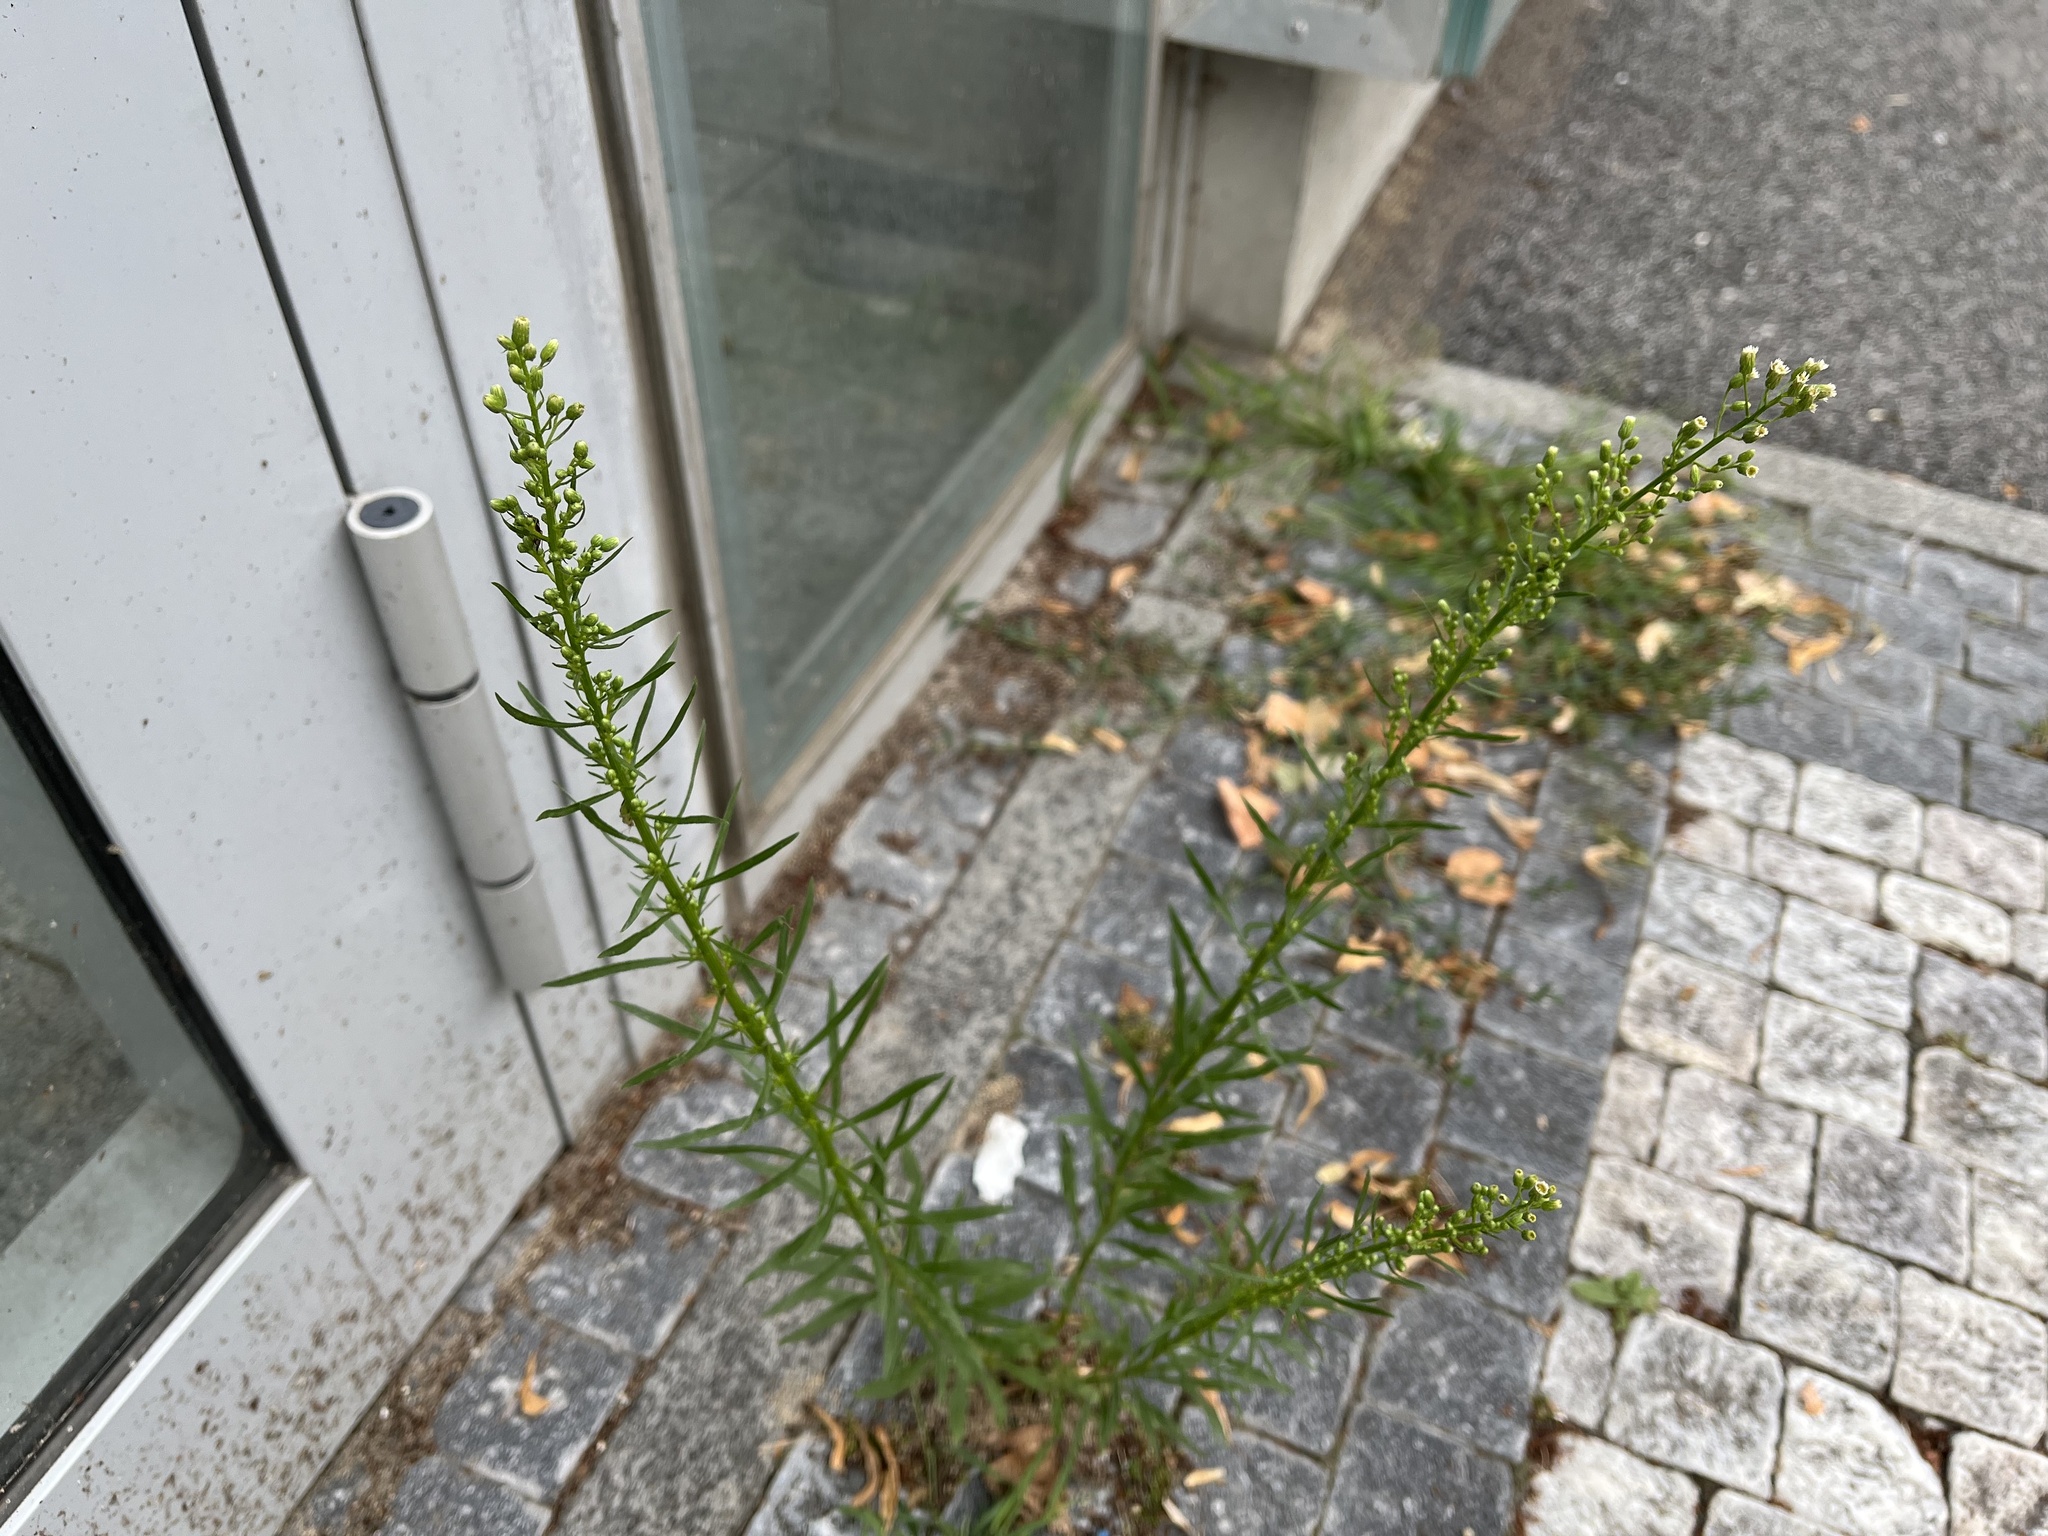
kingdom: Plantae
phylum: Tracheophyta
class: Magnoliopsida
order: Asterales
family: Asteraceae
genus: Erigeron
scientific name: Erigeron canadensis
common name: Canadian fleabane
